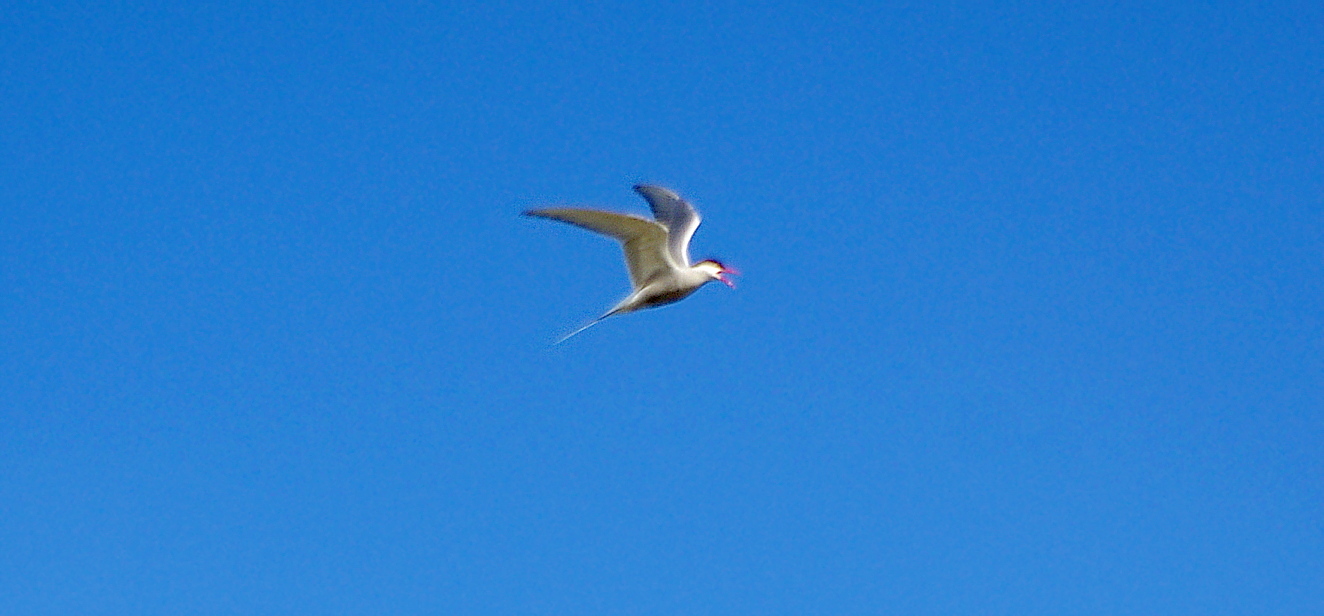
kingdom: Animalia
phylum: Chordata
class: Aves
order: Charadriiformes
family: Laridae
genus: Sterna
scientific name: Sterna paradisaea
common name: Arctic tern
